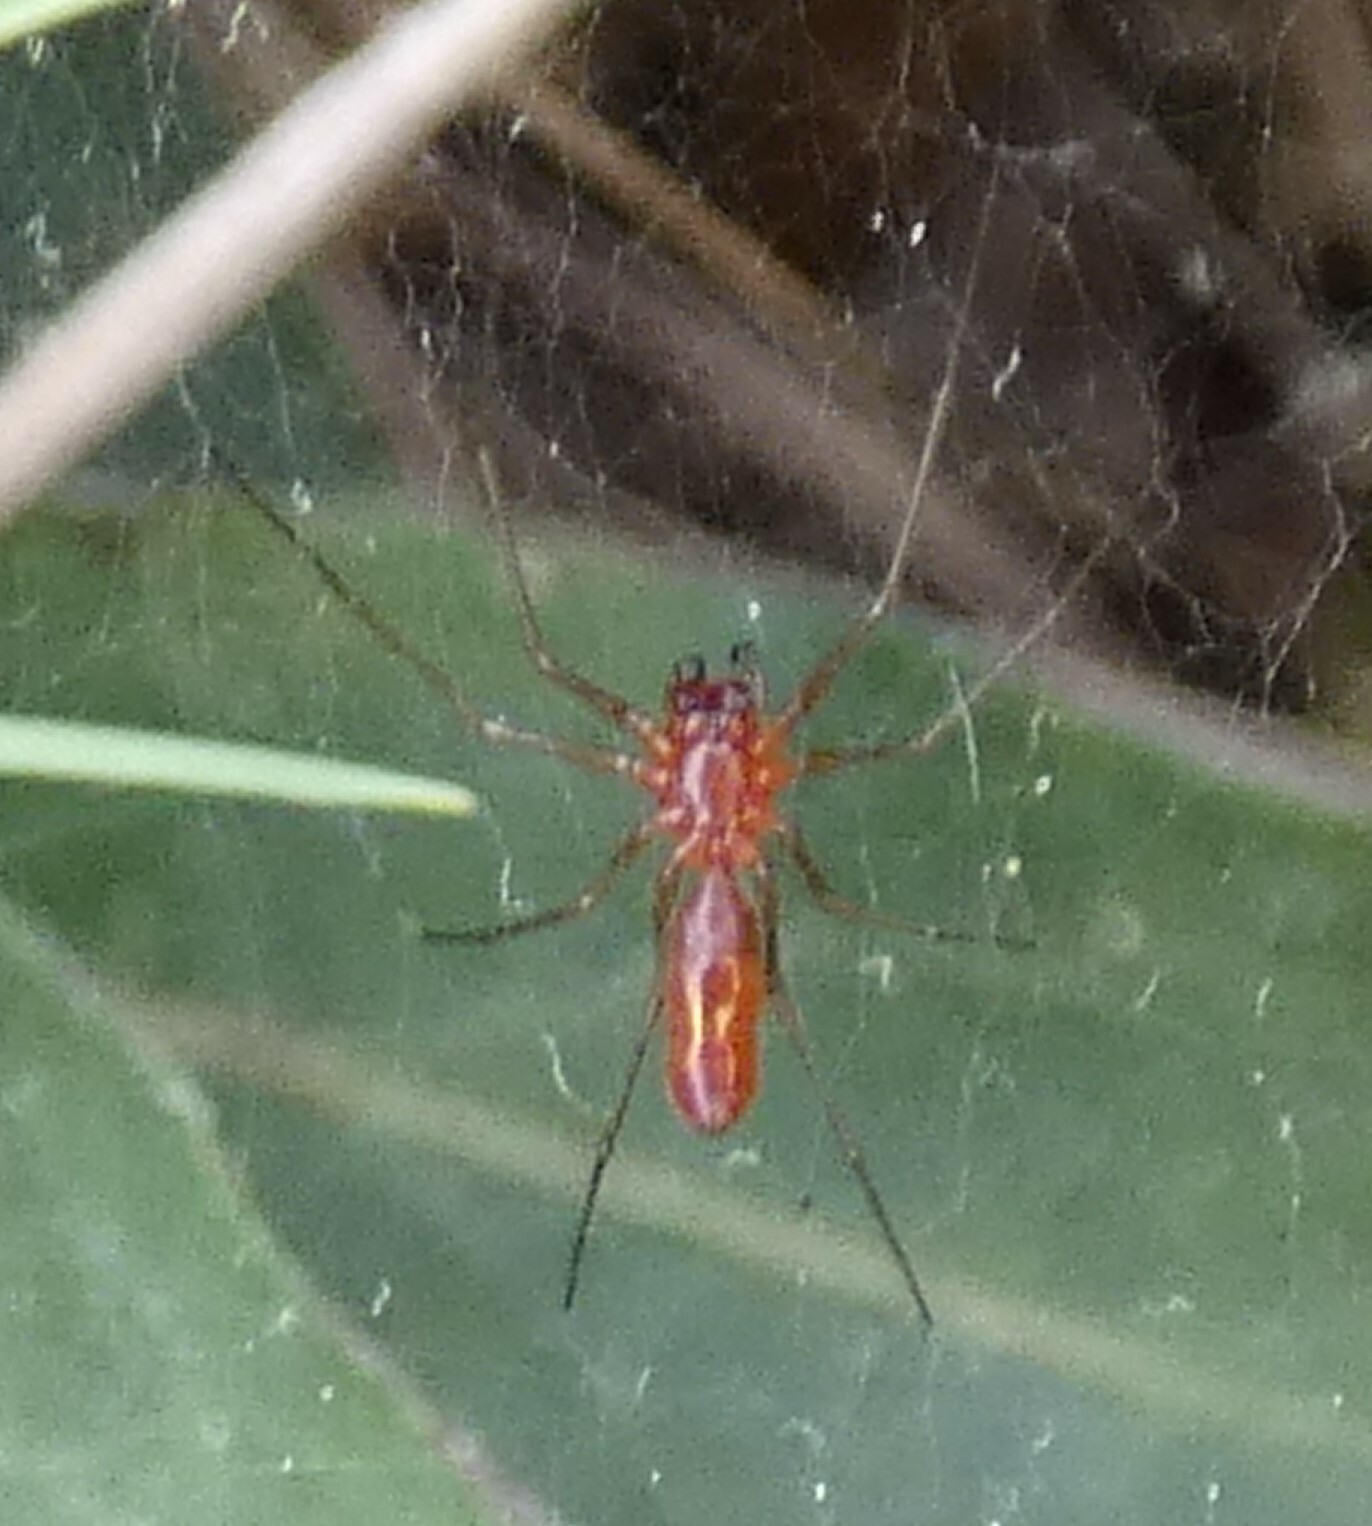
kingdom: Animalia
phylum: Arthropoda
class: Arachnida
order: Araneae
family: Linyphiidae
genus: Florinda
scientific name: Florinda coccinea
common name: Black-tailed red sheetweaver
